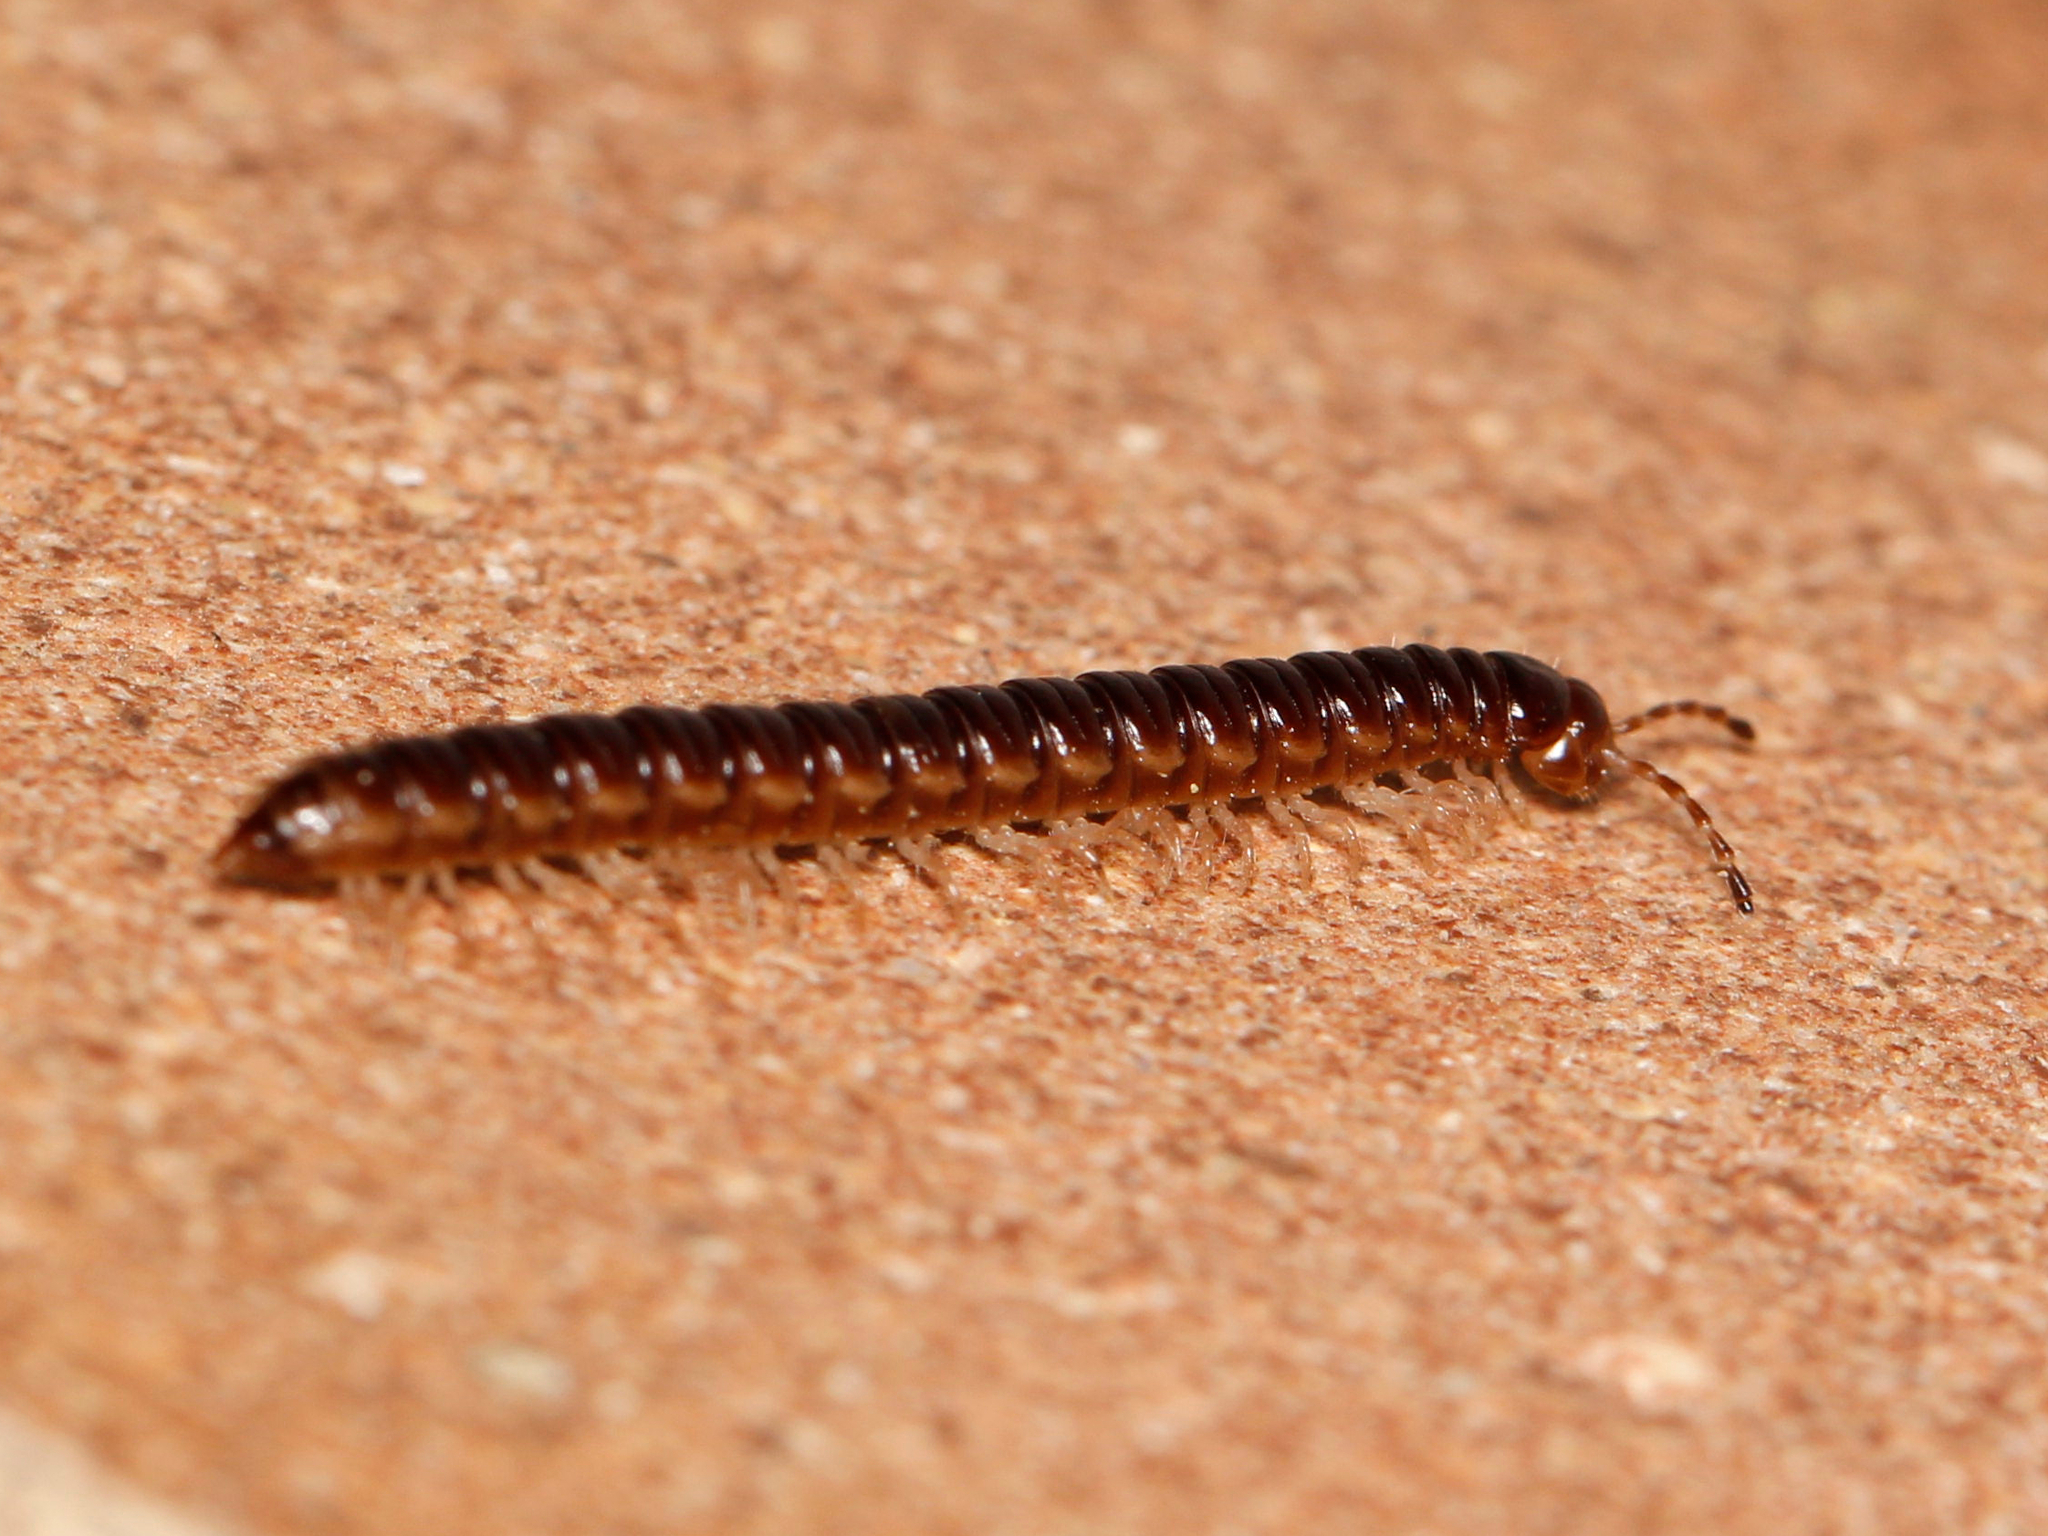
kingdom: Animalia
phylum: Arthropoda
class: Diplopoda
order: Polydesmida
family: Paradoxosomatidae
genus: Oxidus
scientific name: Oxidus gracilis
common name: Greenhouse millipede
